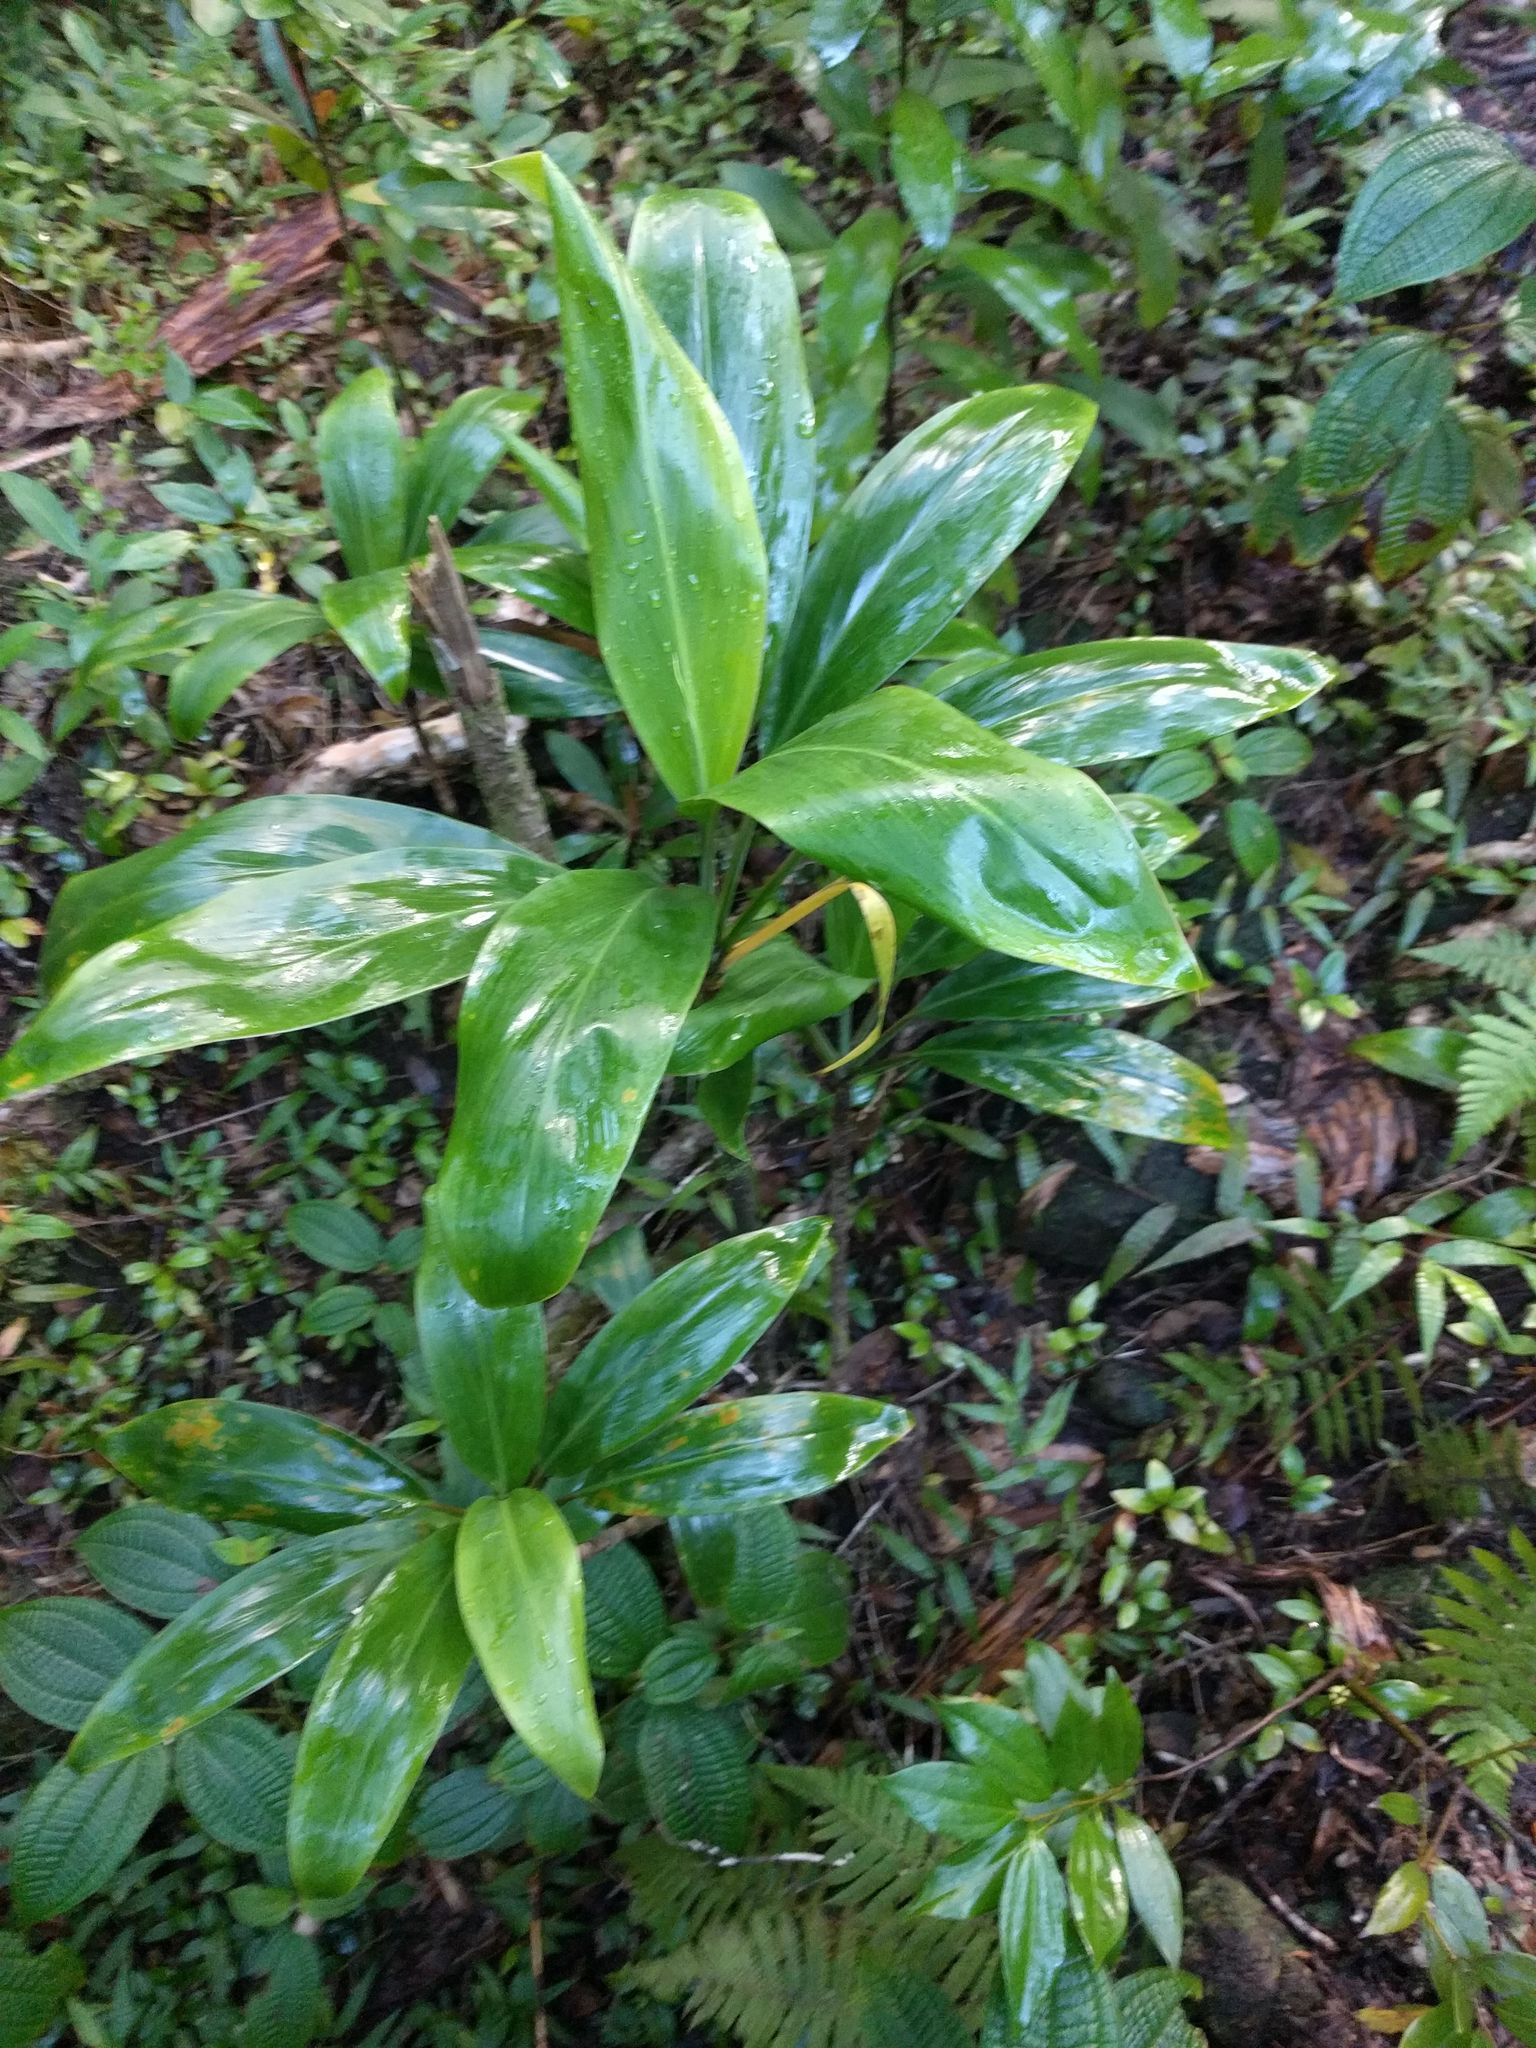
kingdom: Plantae
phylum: Tracheophyta
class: Liliopsida
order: Asparagales
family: Asparagaceae
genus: Cordyline
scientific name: Cordyline fruticosa
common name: Good-luck-plant
